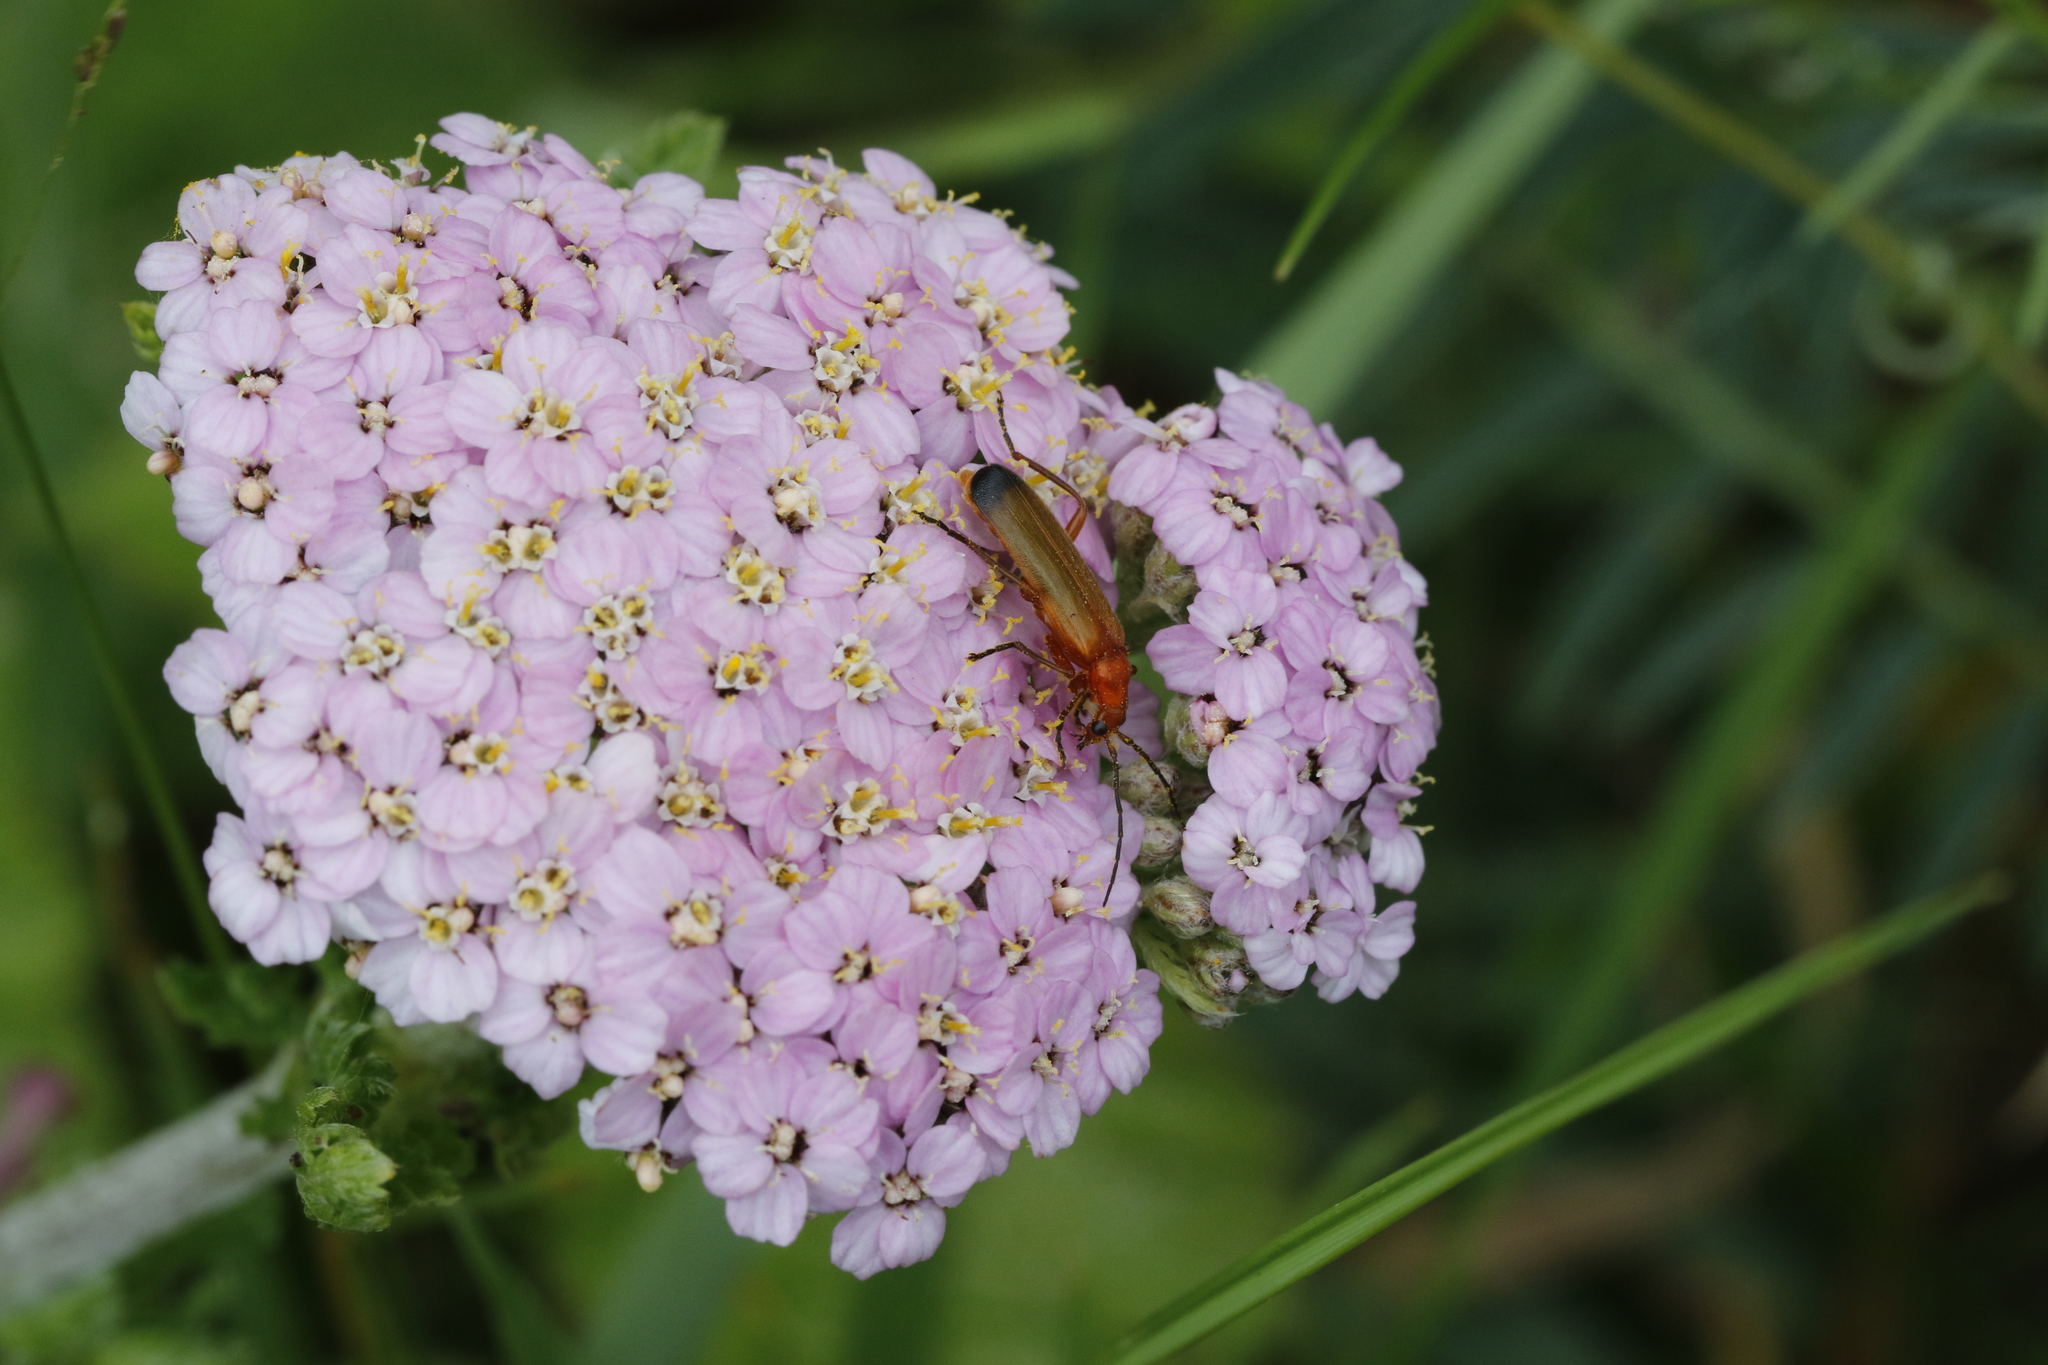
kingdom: Animalia
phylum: Arthropoda
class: Insecta
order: Coleoptera
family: Cantharidae
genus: Rhagonycha
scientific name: Rhagonycha fulva
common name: Common red soldier beetle
